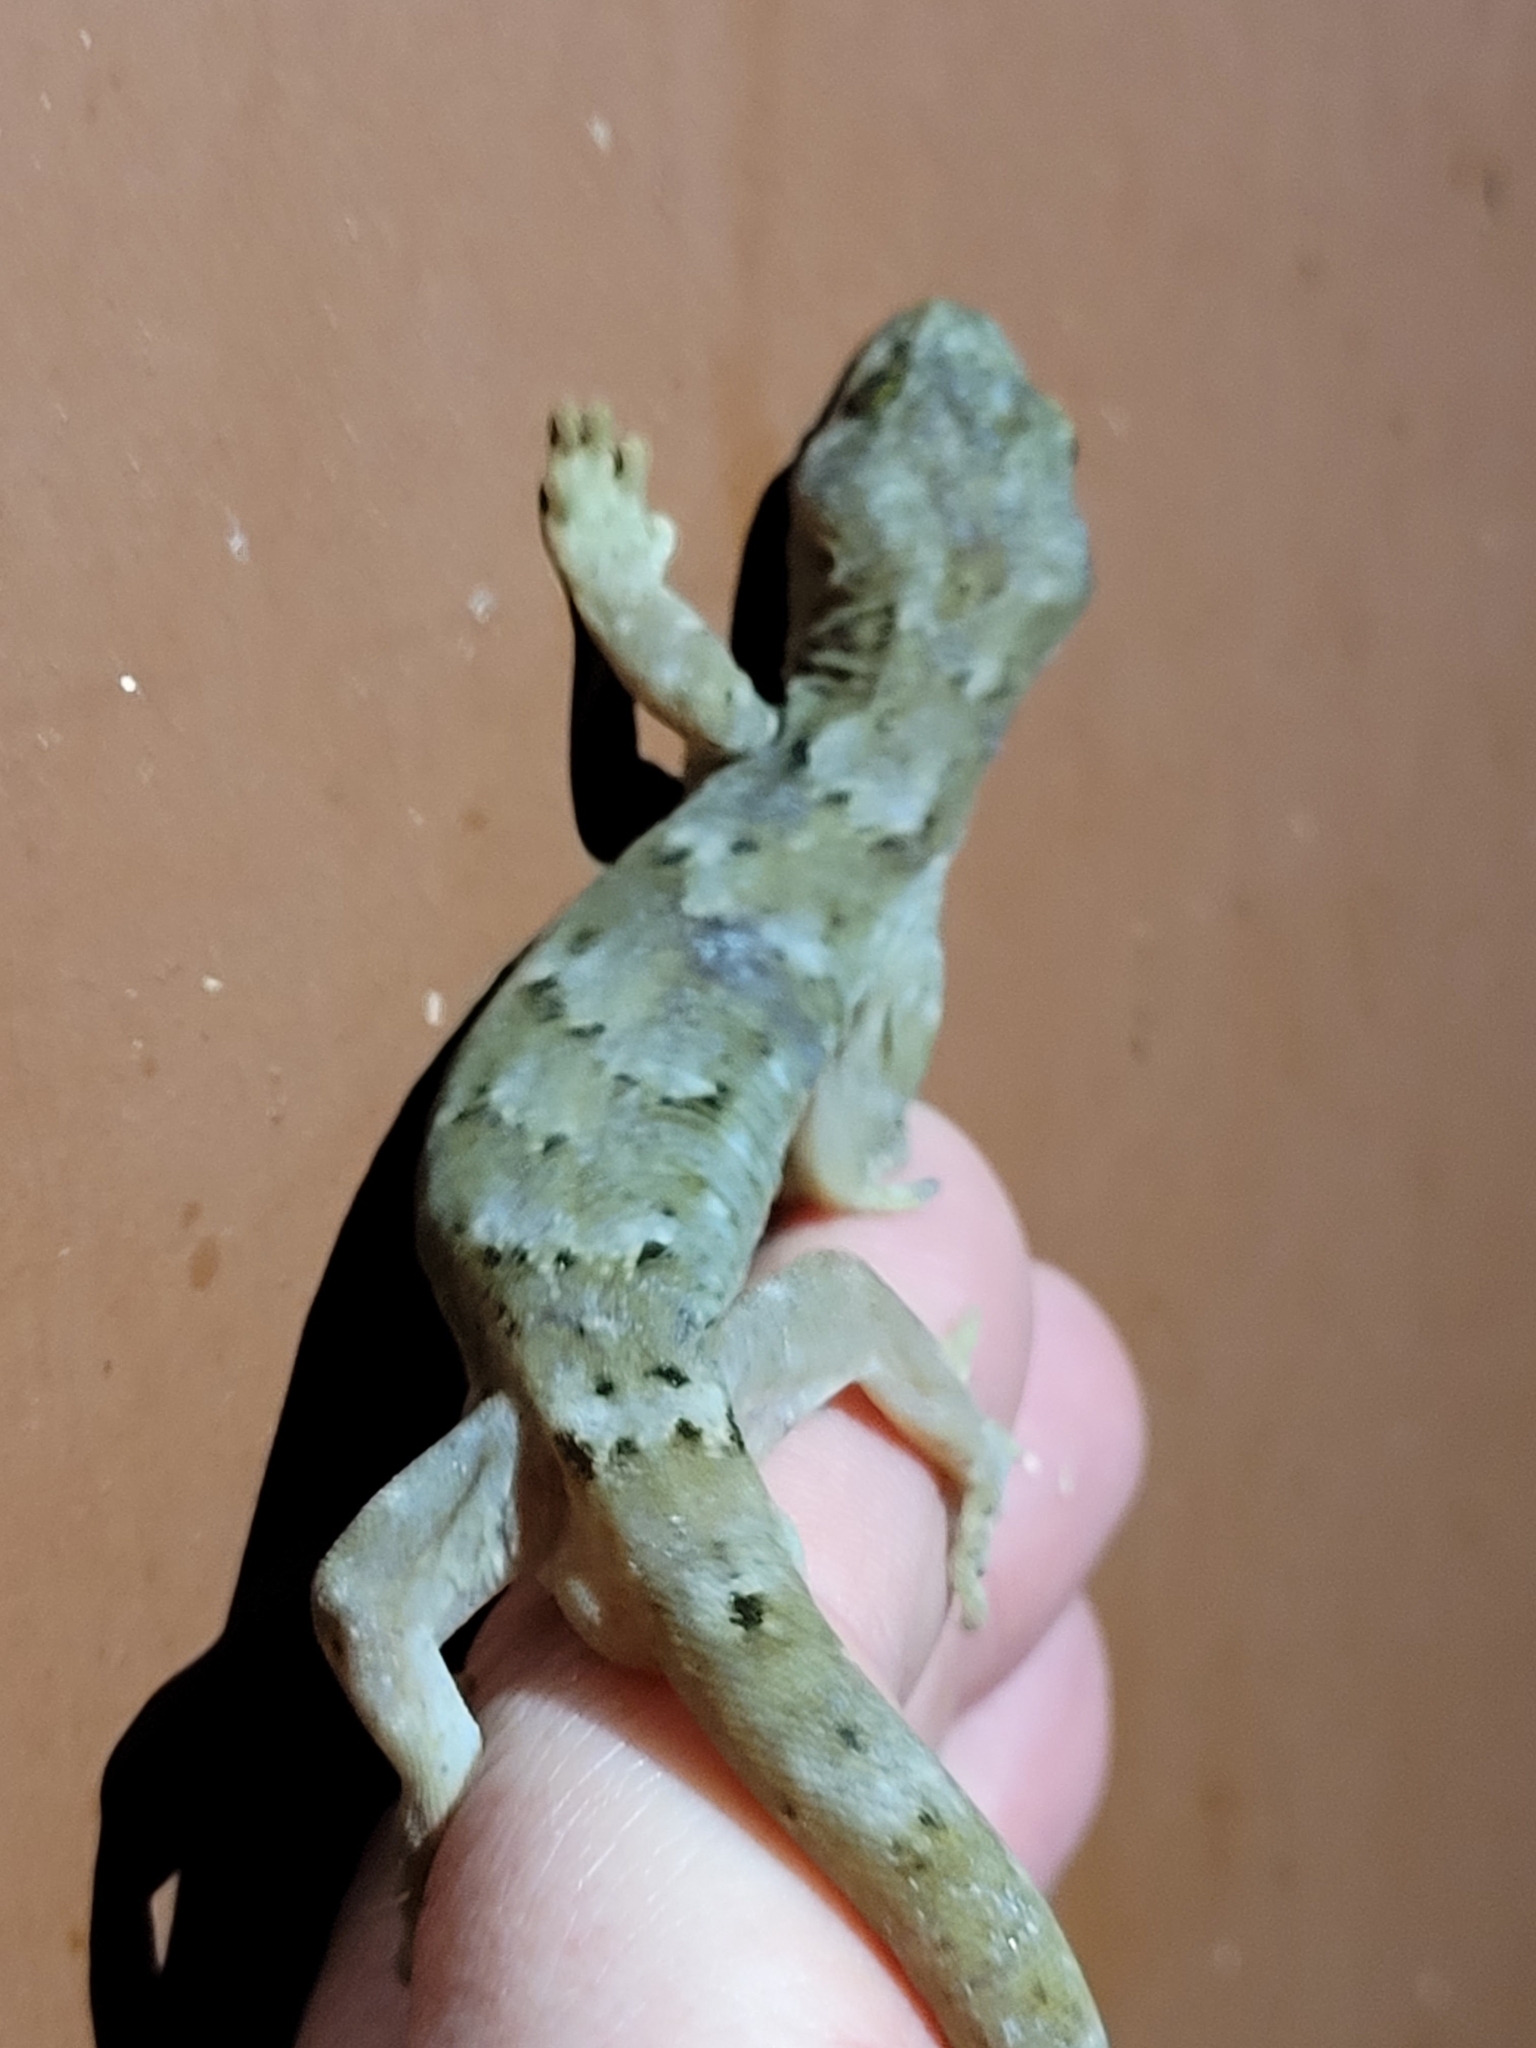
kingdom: Animalia
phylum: Chordata
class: Squamata
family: Diplodactylidae
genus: Woodworthia
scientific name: Woodworthia maculata
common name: Raukawa gecko
